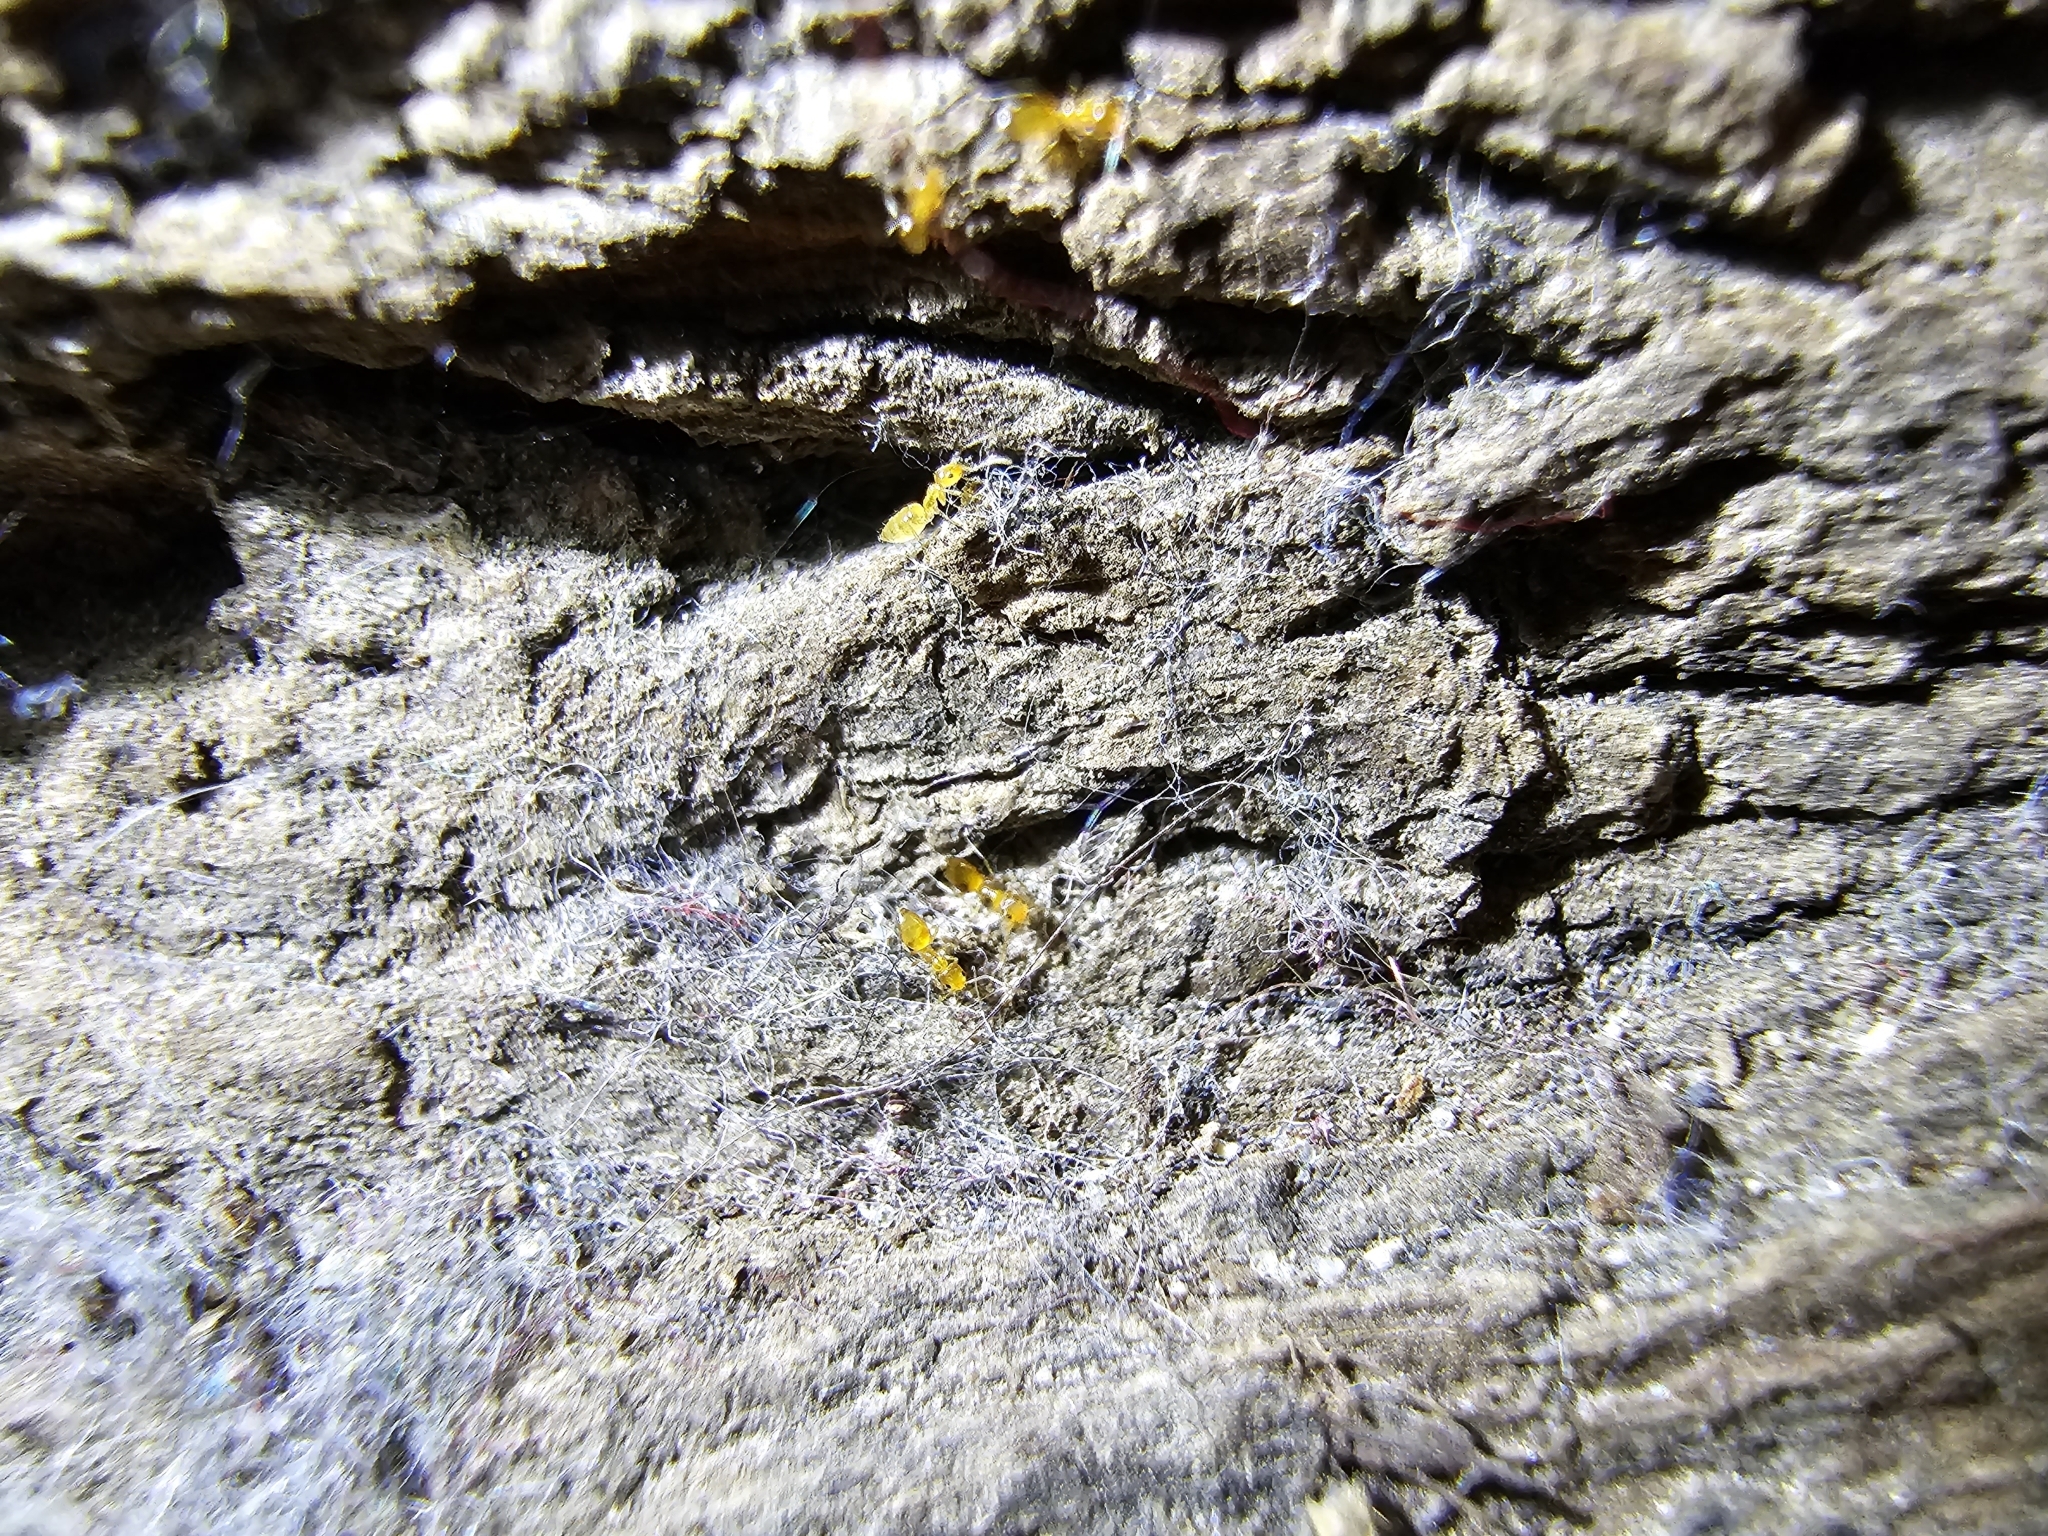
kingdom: Animalia
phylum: Arthropoda
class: Insecta
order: Hymenoptera
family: Formicidae
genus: Plagiolepis
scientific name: Plagiolepis alluaudi
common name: Little yellow ant
